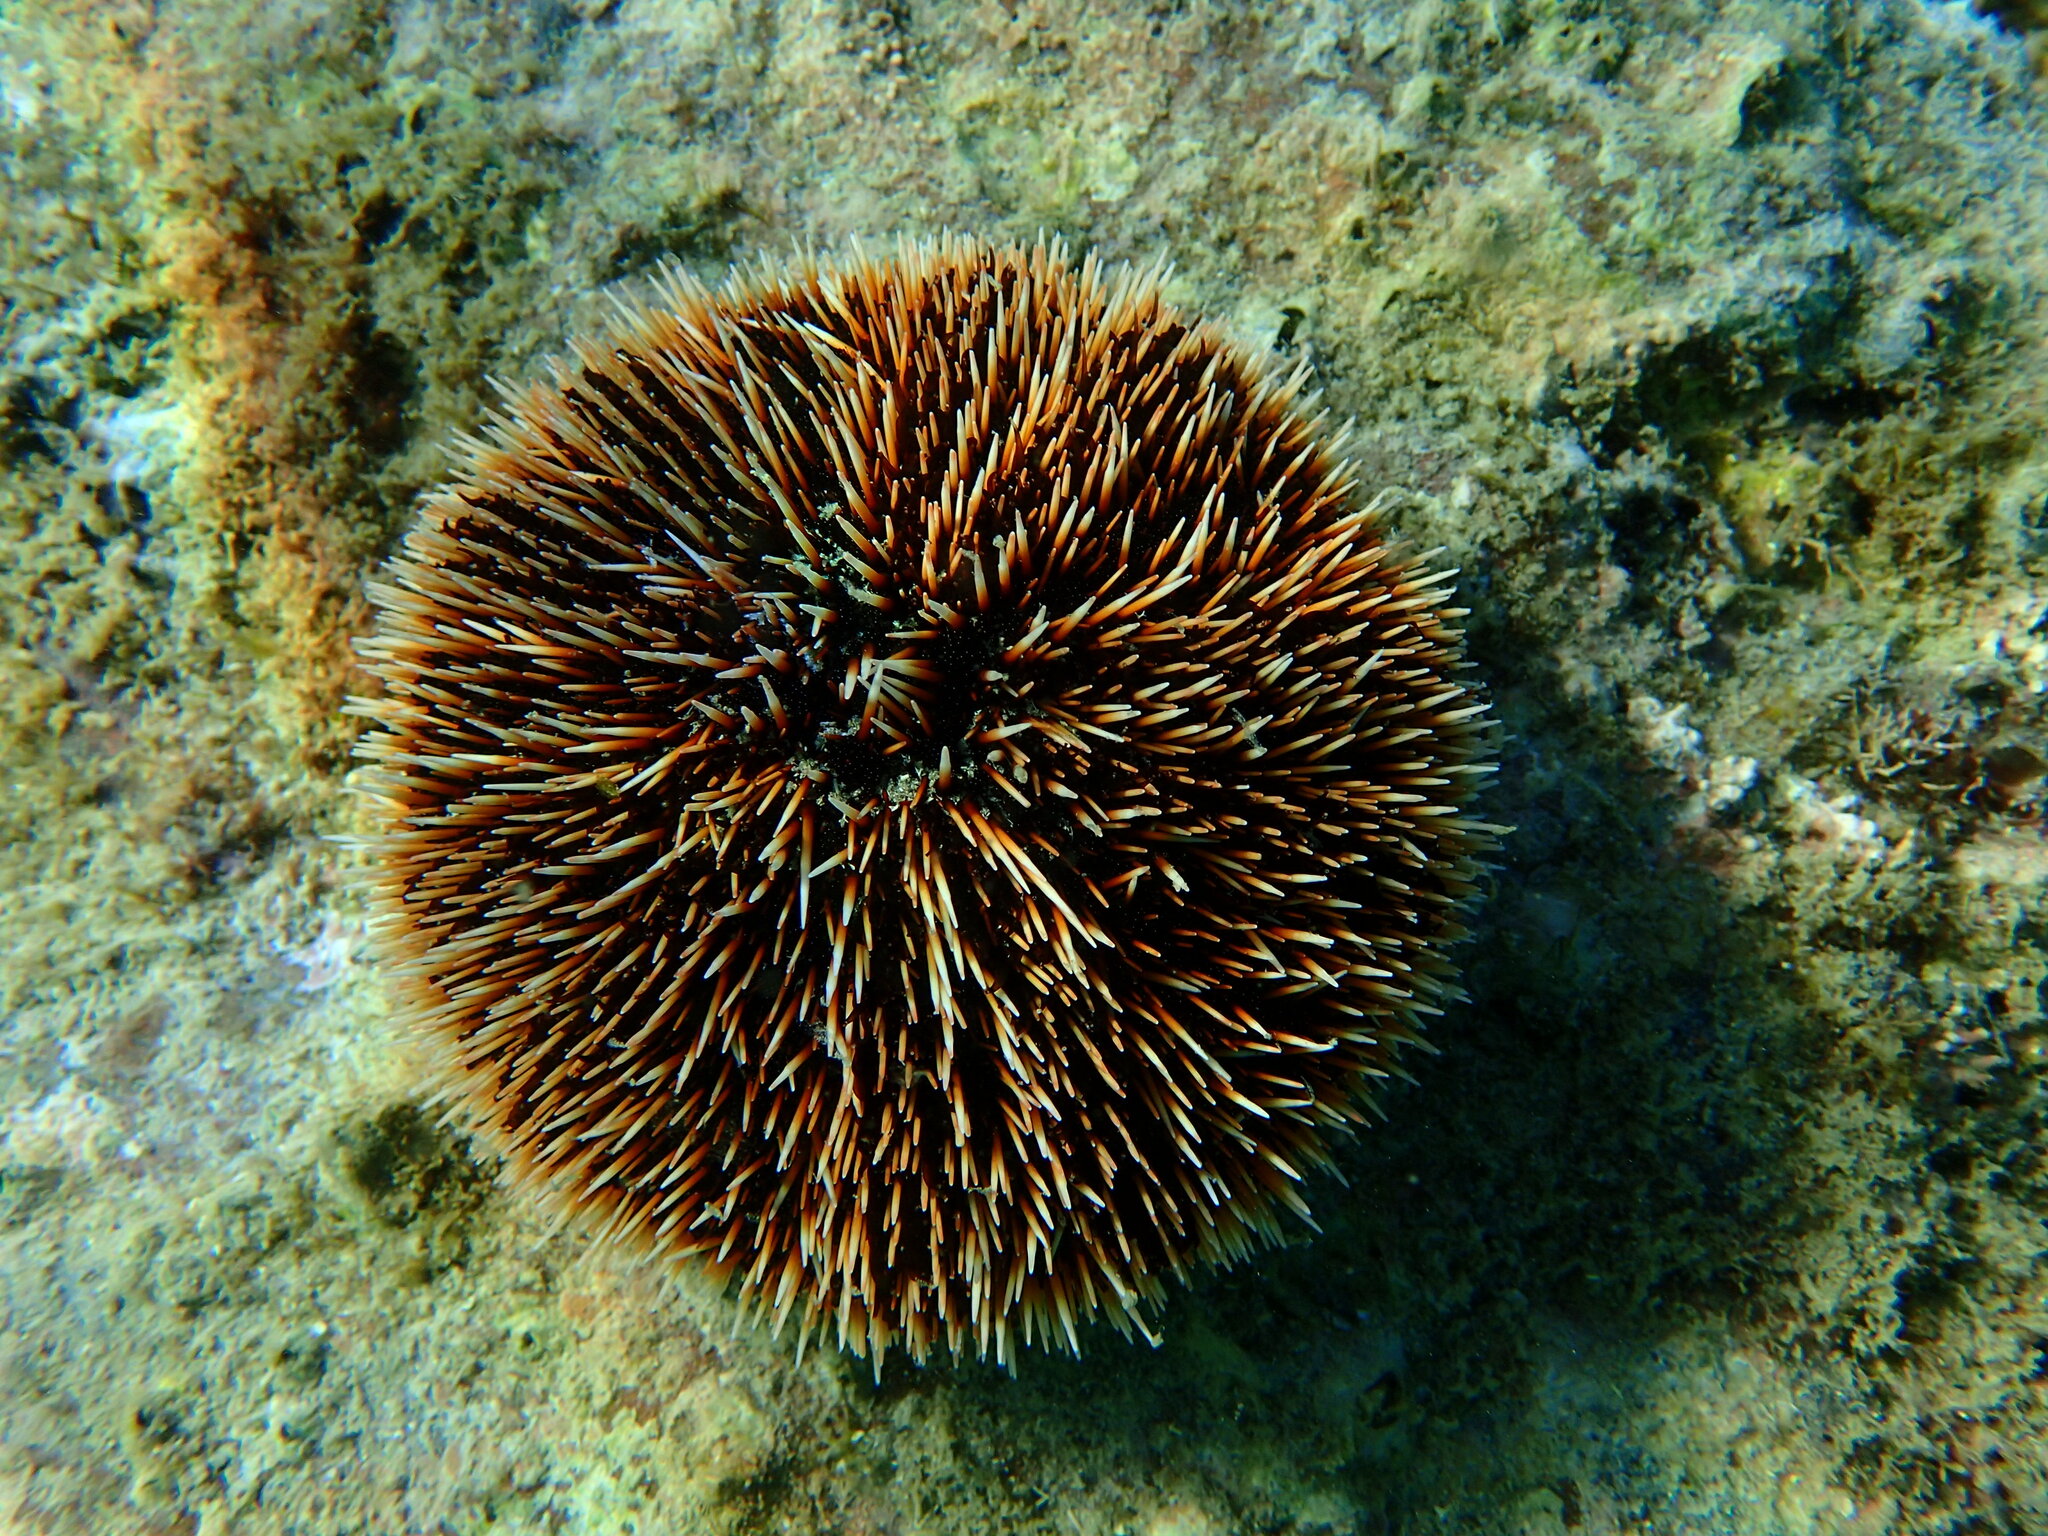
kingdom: Animalia
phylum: Echinodermata
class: Echinoidea
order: Camarodonta
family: Toxopneustidae
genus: Tripneustes
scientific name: Tripneustes depressus
